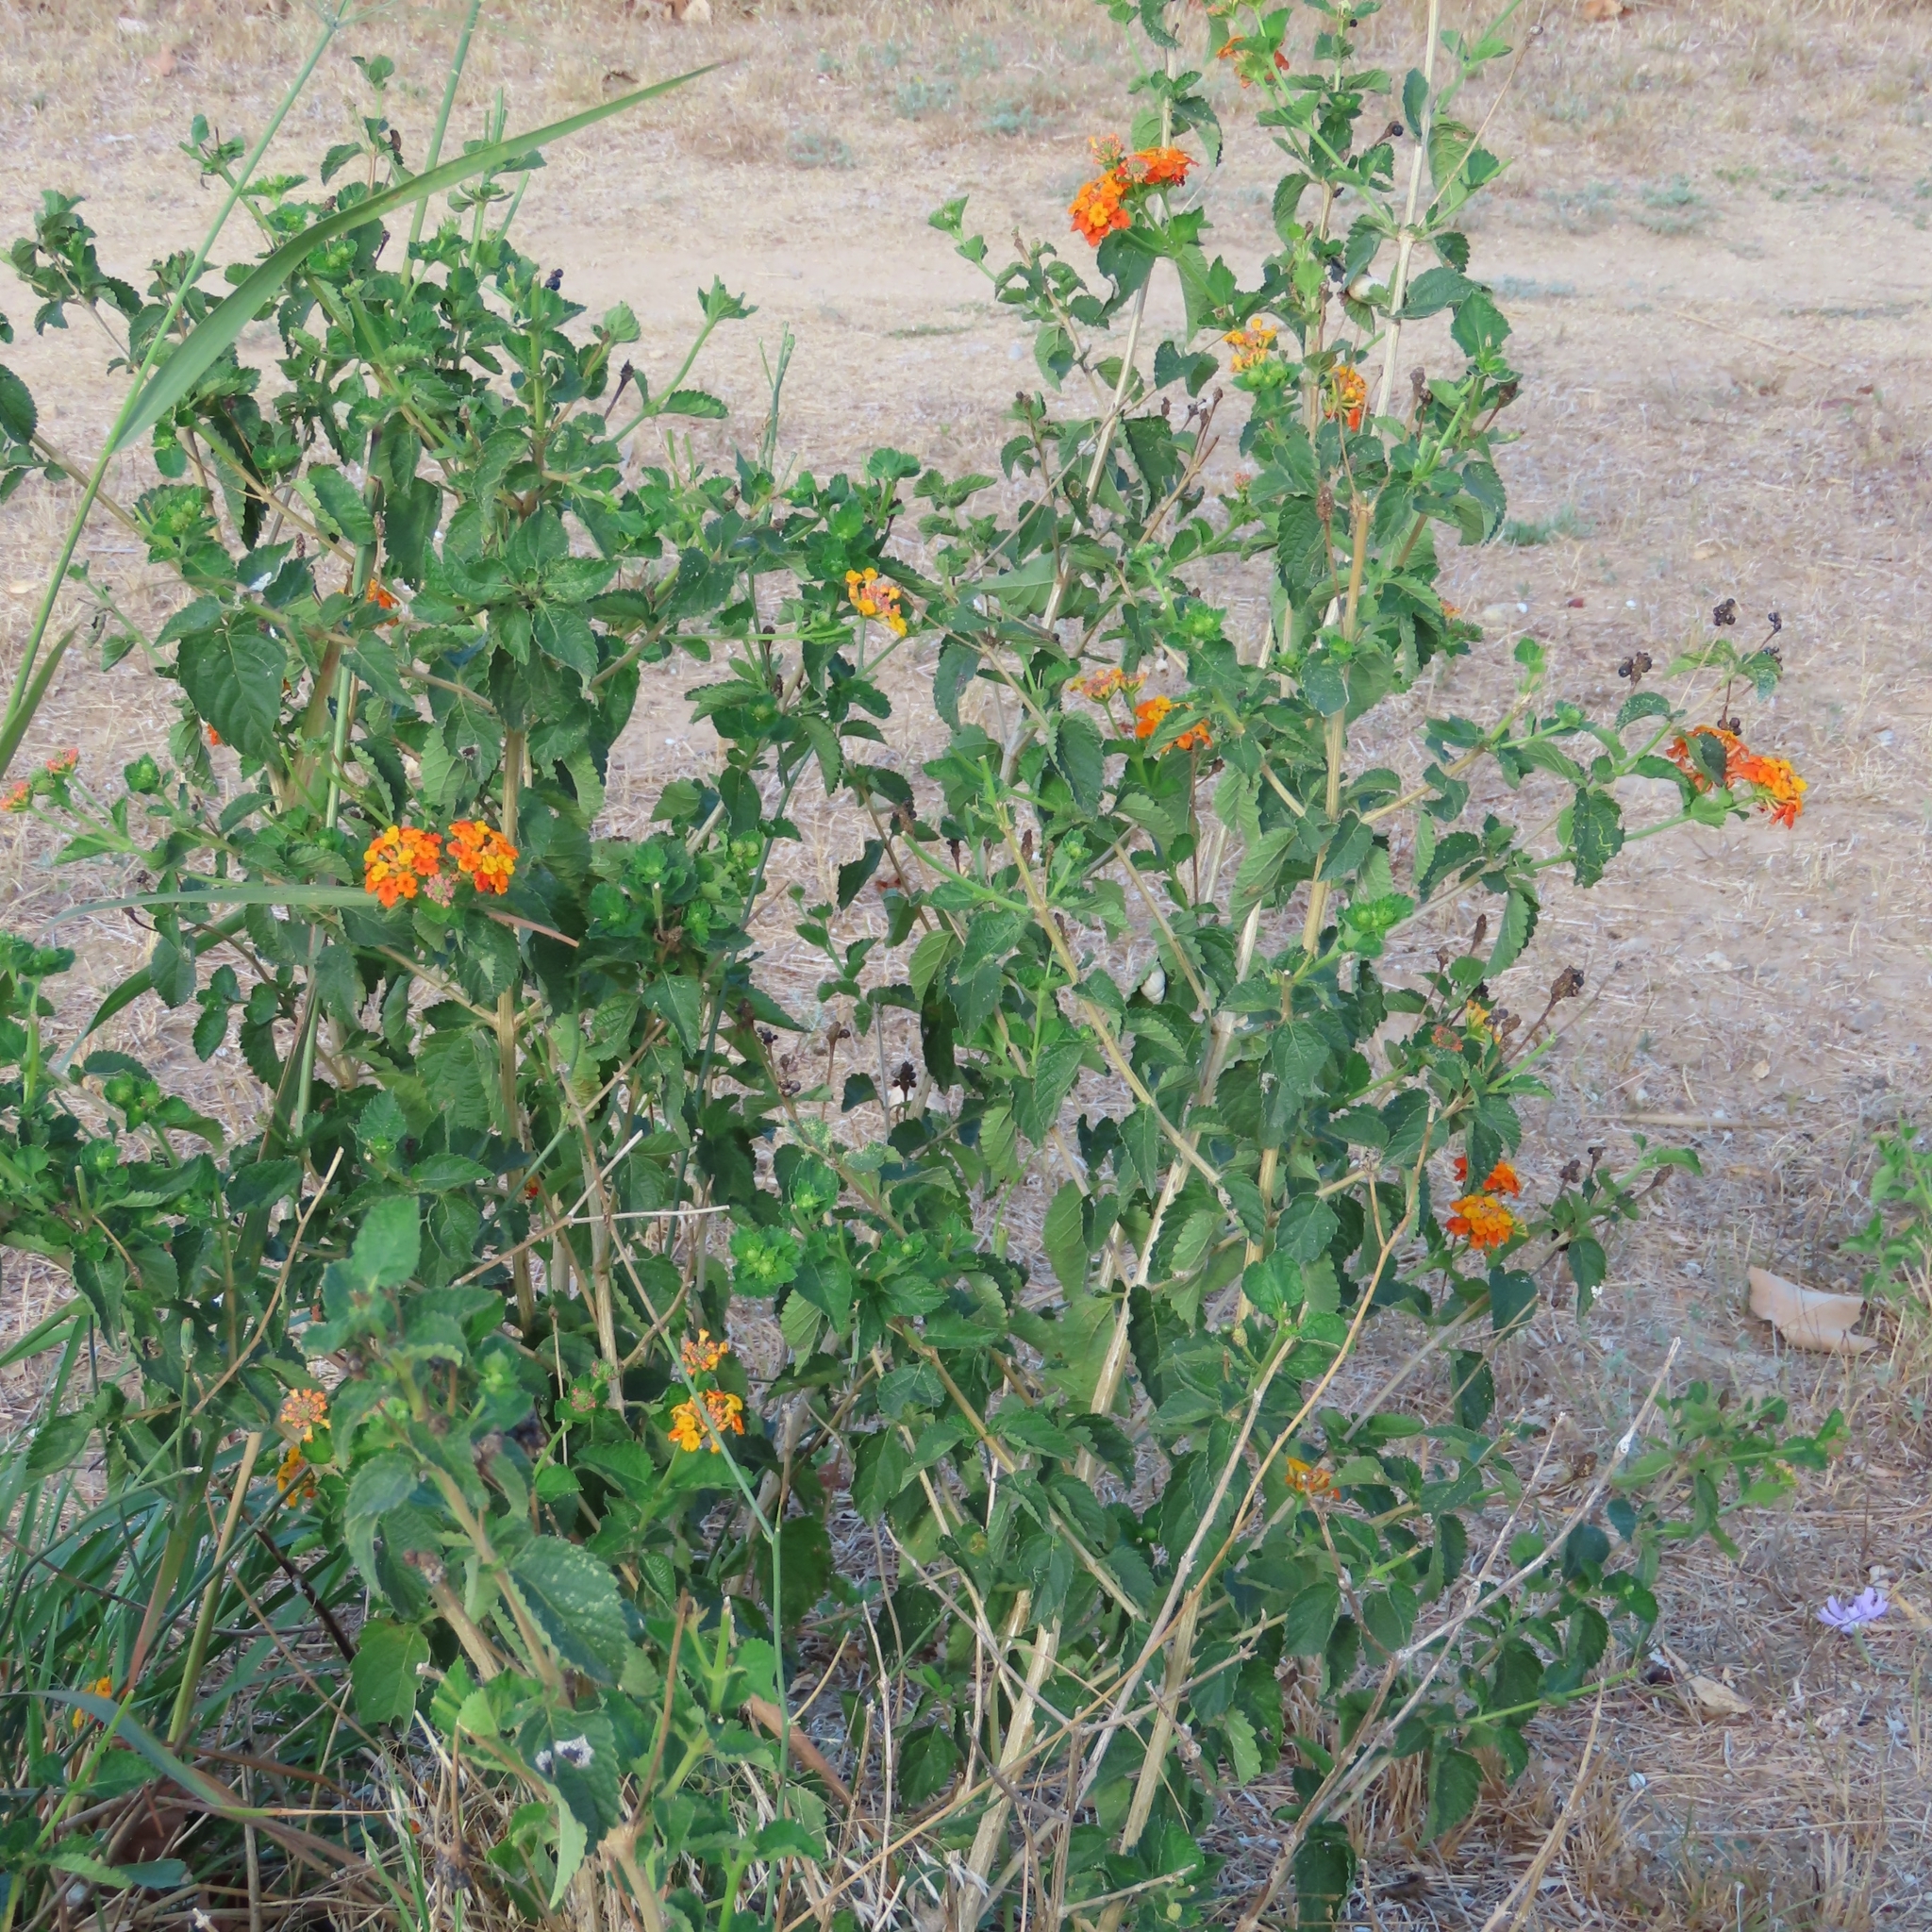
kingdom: Plantae
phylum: Tracheophyta
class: Magnoliopsida
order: Lamiales
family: Verbenaceae
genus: Lantana
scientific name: Lantana urticoides
